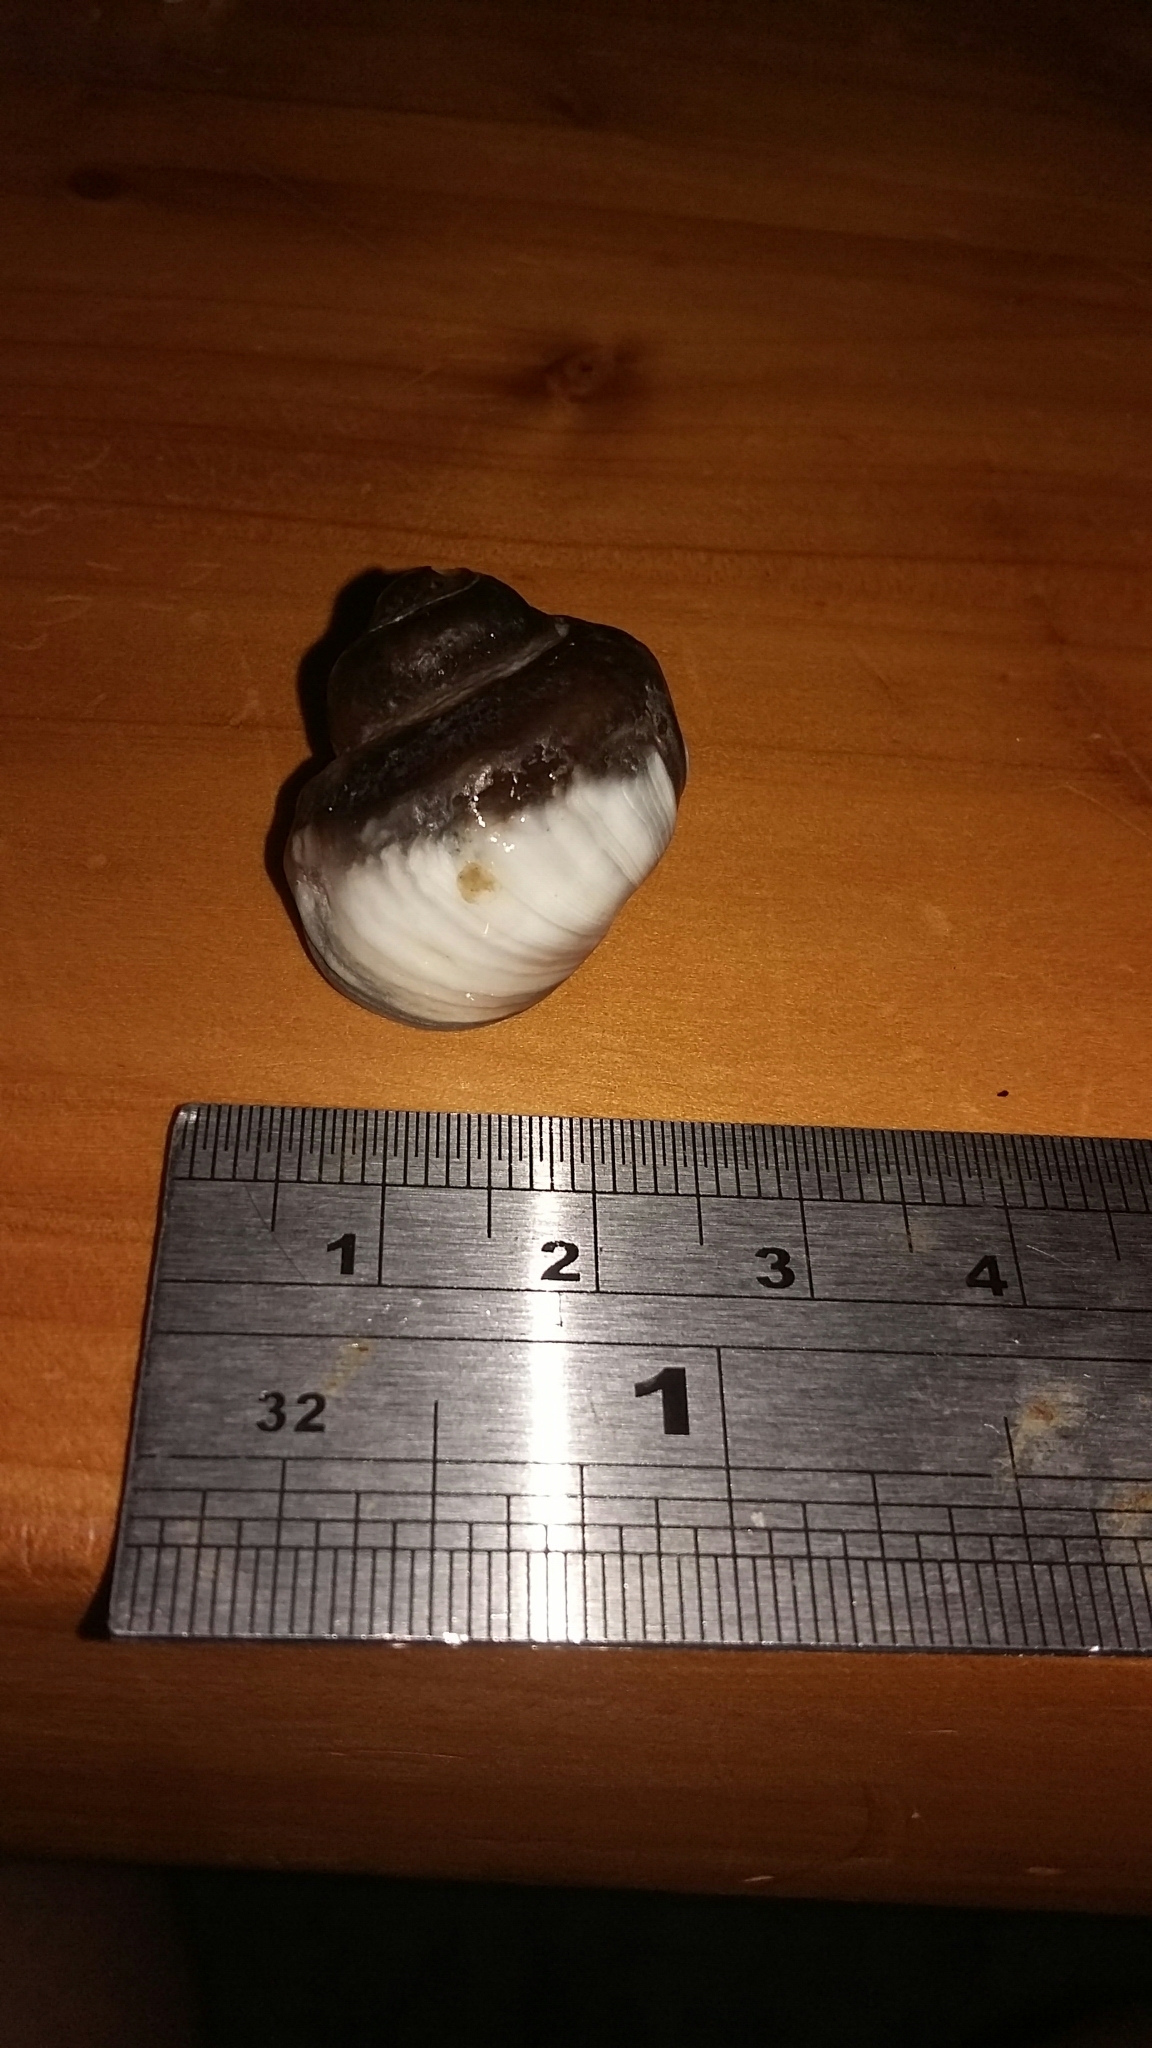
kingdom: Animalia
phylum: Mollusca
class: Gastropoda
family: Amphibolidae
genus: Amphibola
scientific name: Amphibola crenata
